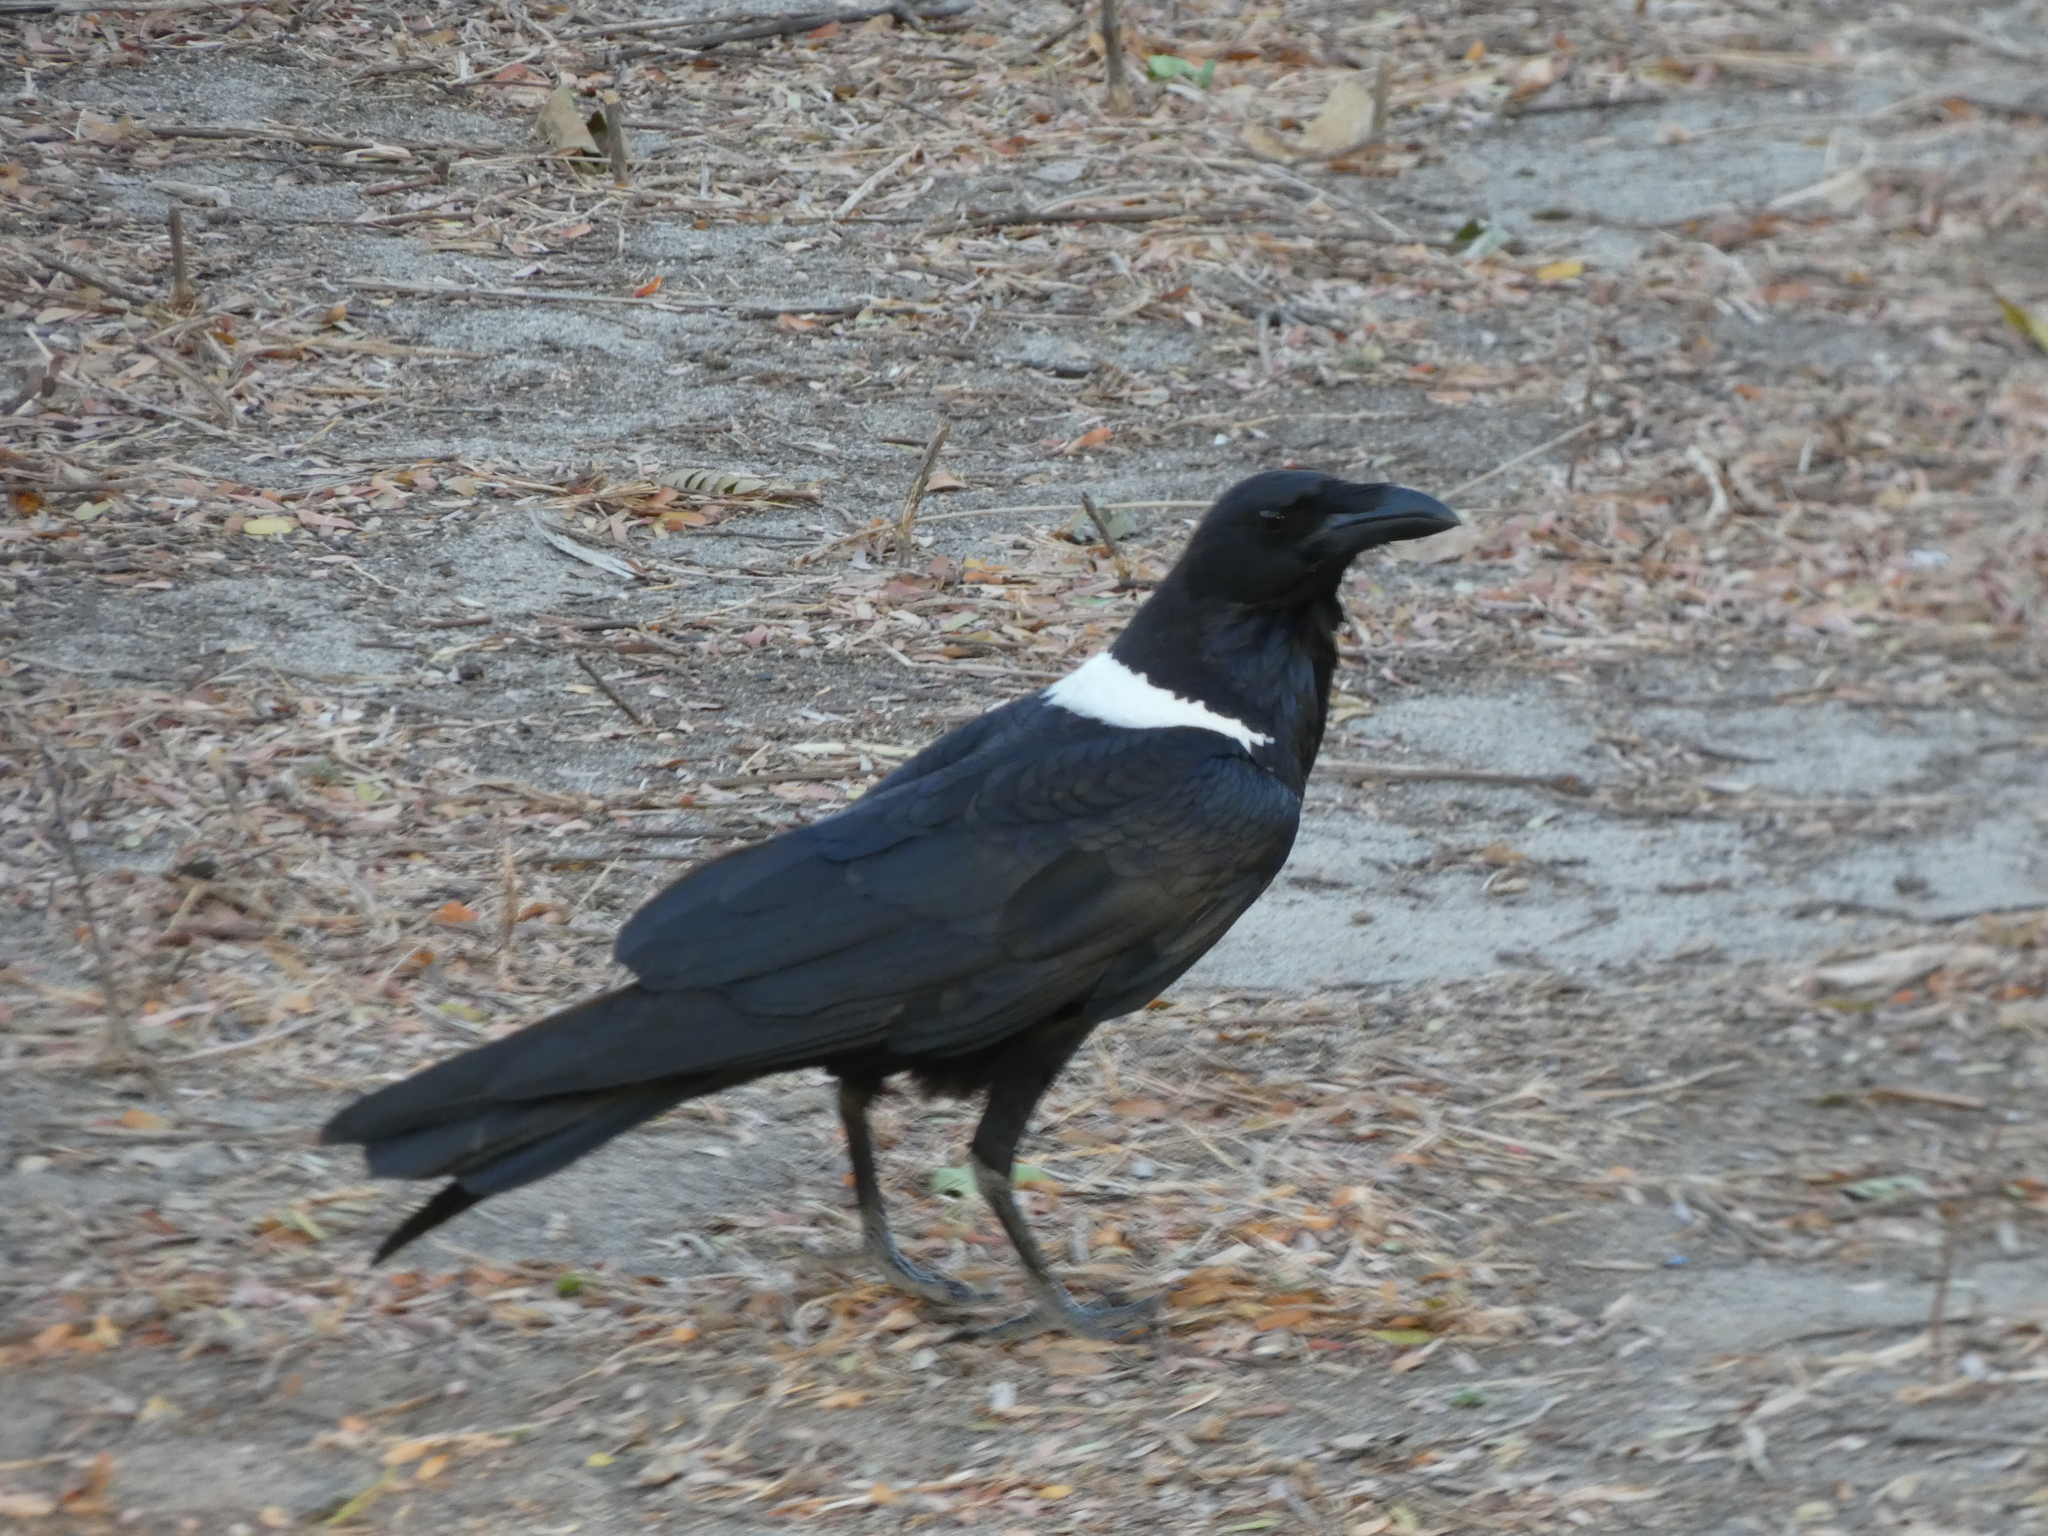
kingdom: Animalia
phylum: Chordata
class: Aves
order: Passeriformes
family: Corvidae
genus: Corvus
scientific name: Corvus albus
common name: Pied crow
